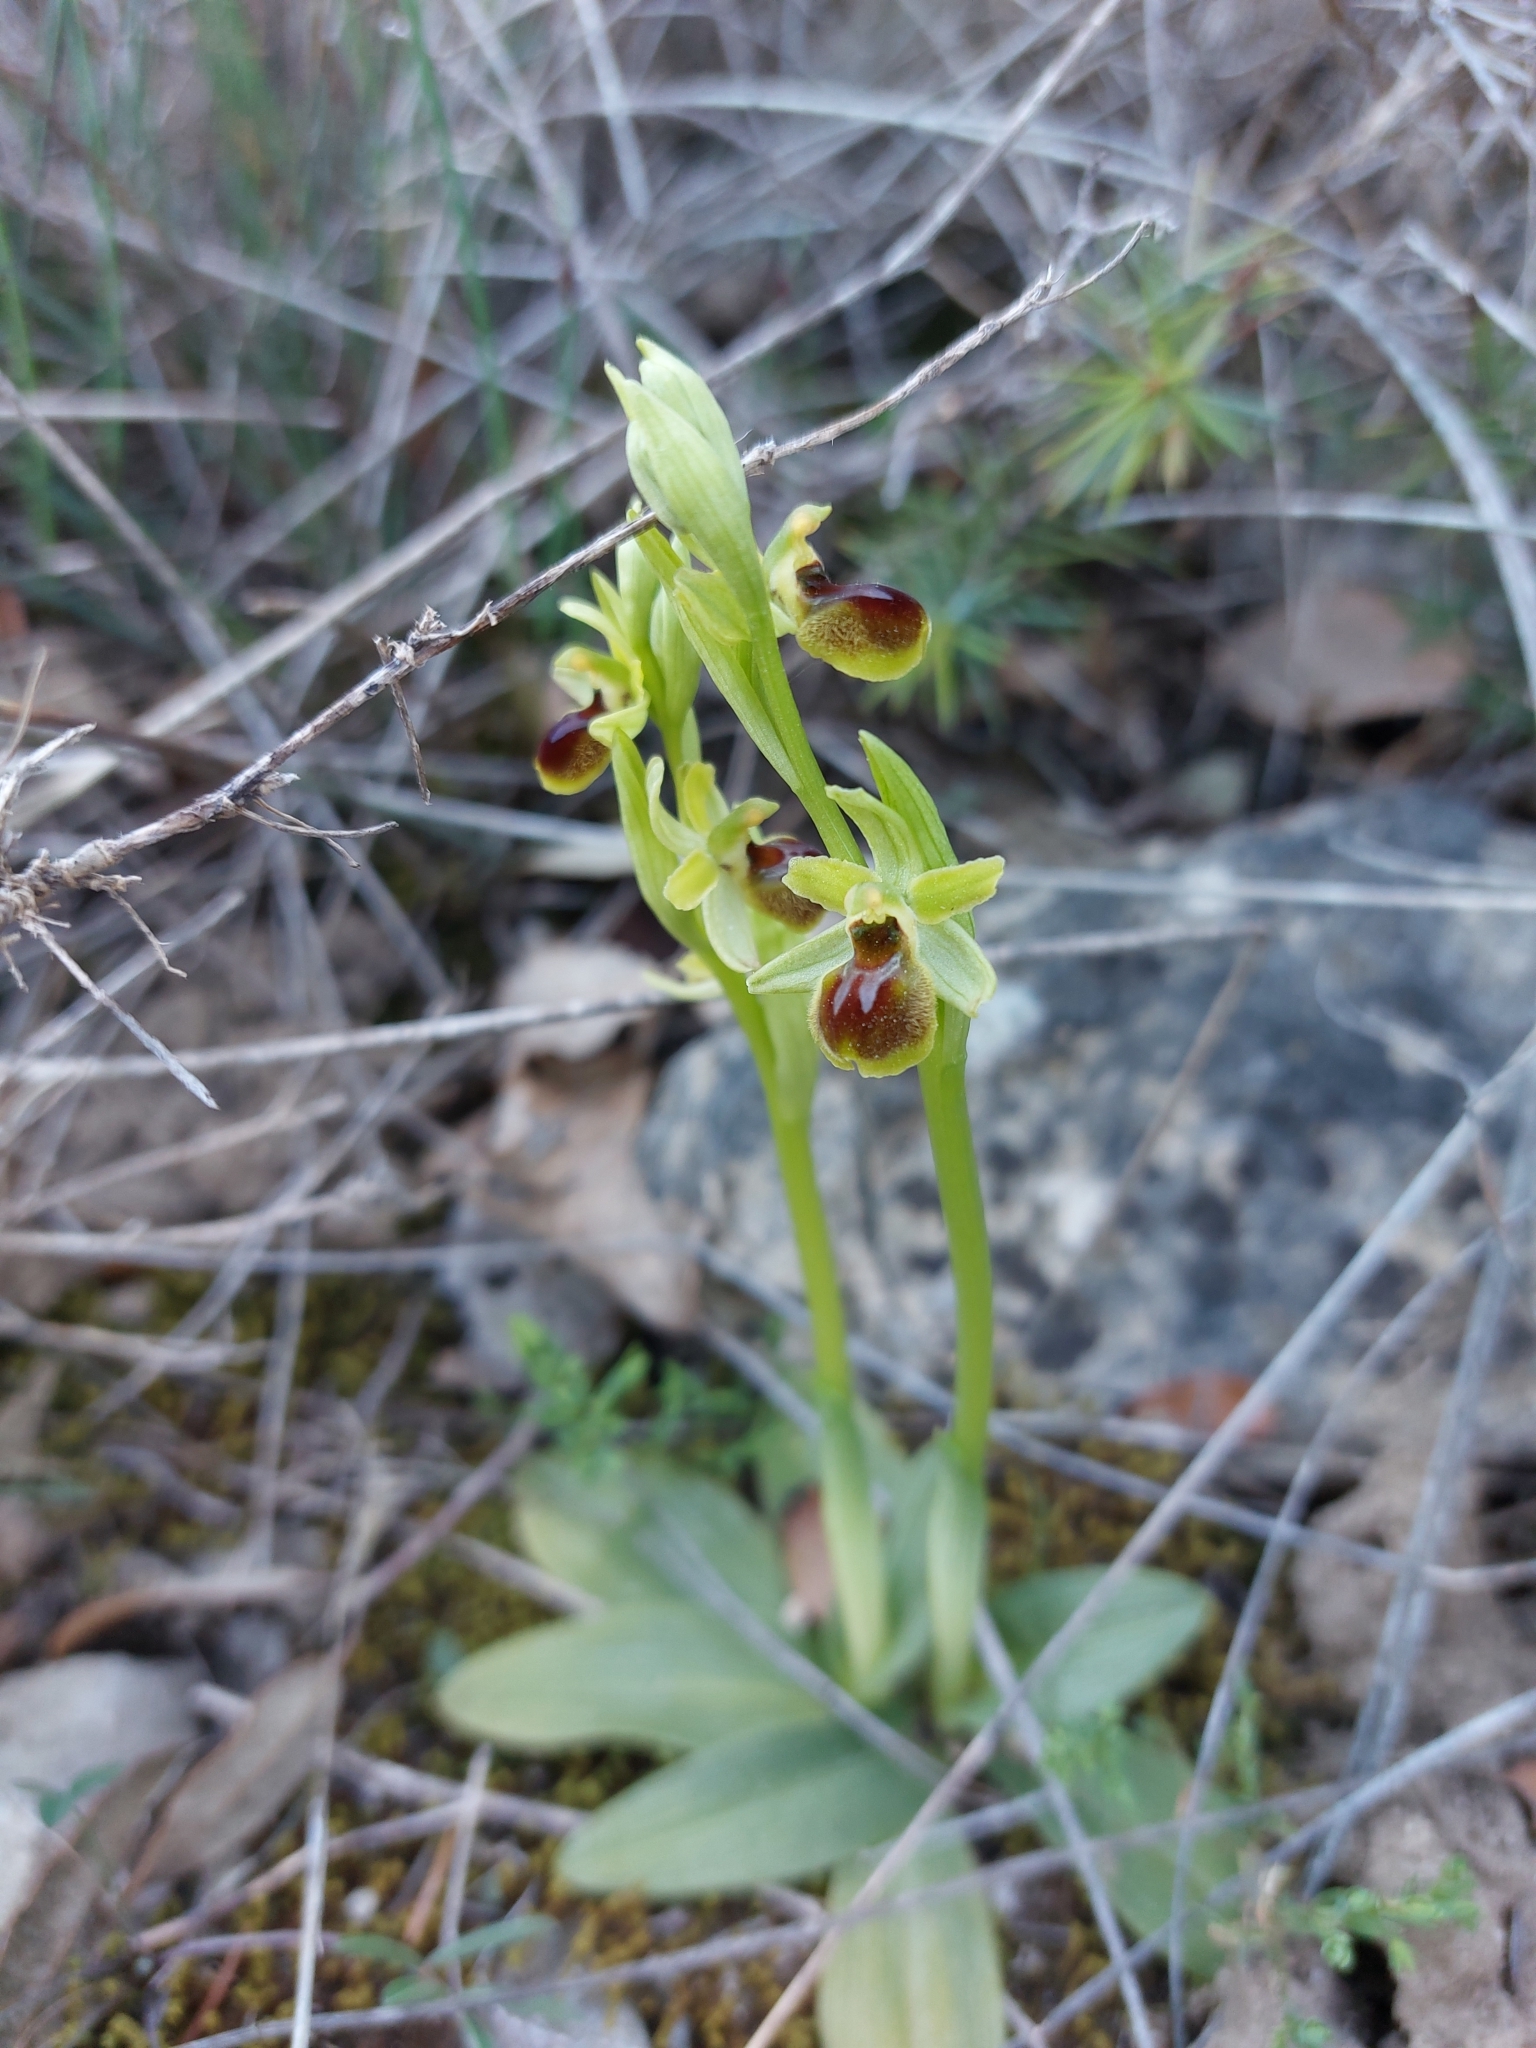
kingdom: Plantae
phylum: Tracheophyta
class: Liliopsida
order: Asparagales
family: Orchidaceae
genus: Ophrys
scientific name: Ophrys araneola
